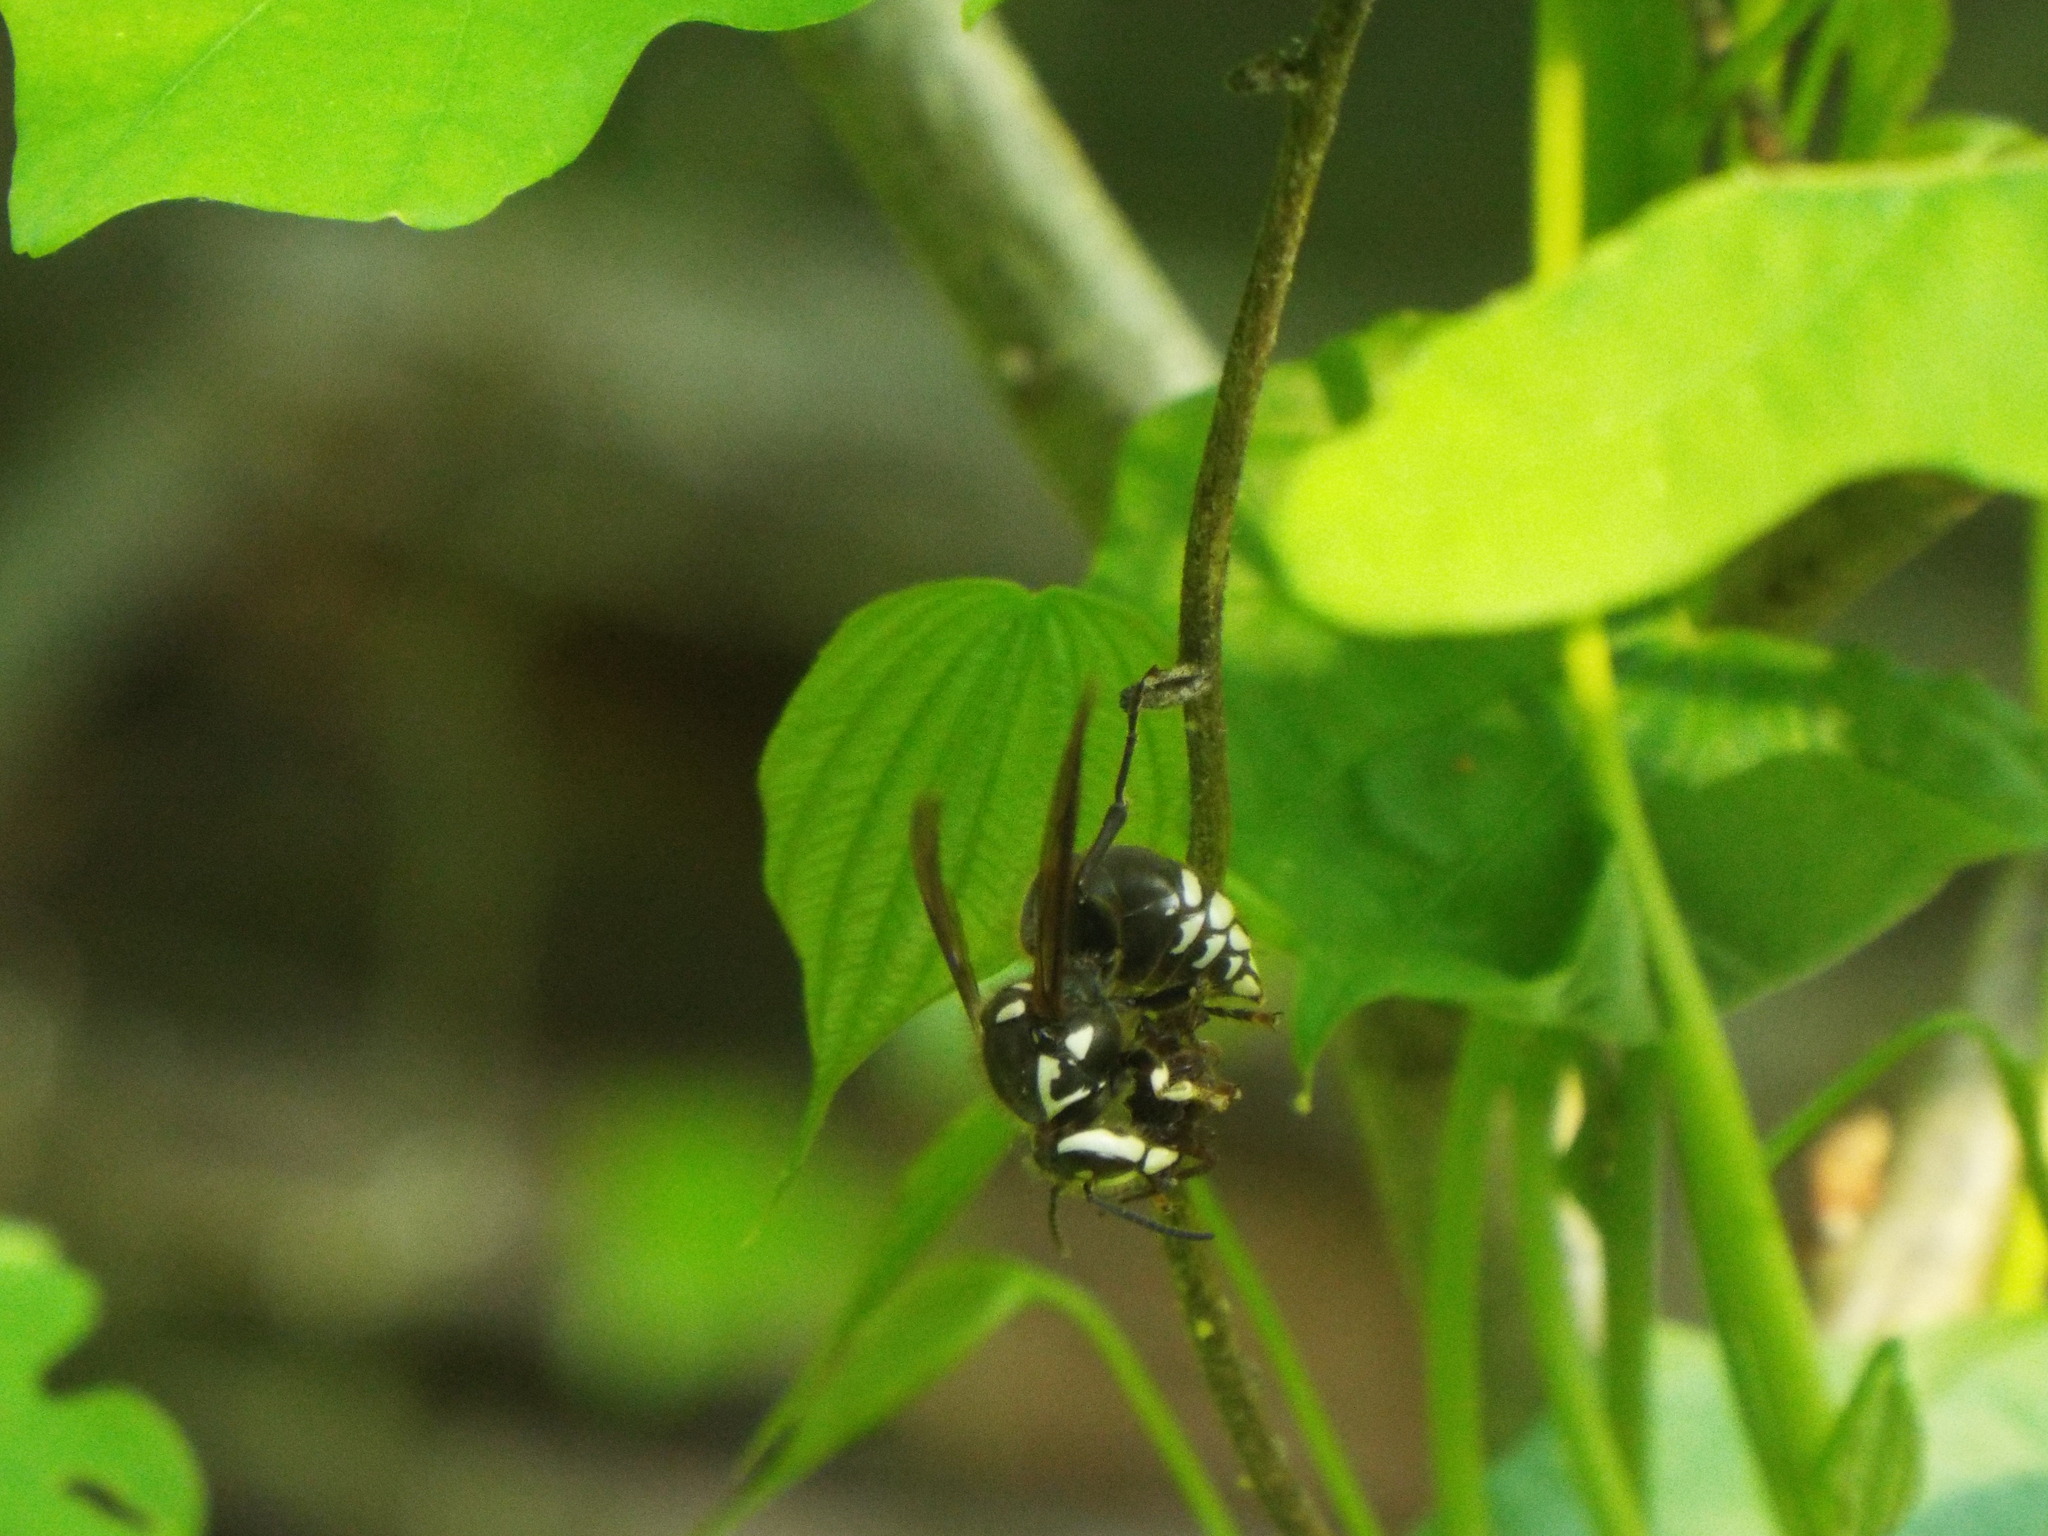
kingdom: Animalia
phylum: Arthropoda
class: Insecta
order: Hymenoptera
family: Vespidae
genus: Dolichovespula
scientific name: Dolichovespula maculata
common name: Bald-faced hornet
